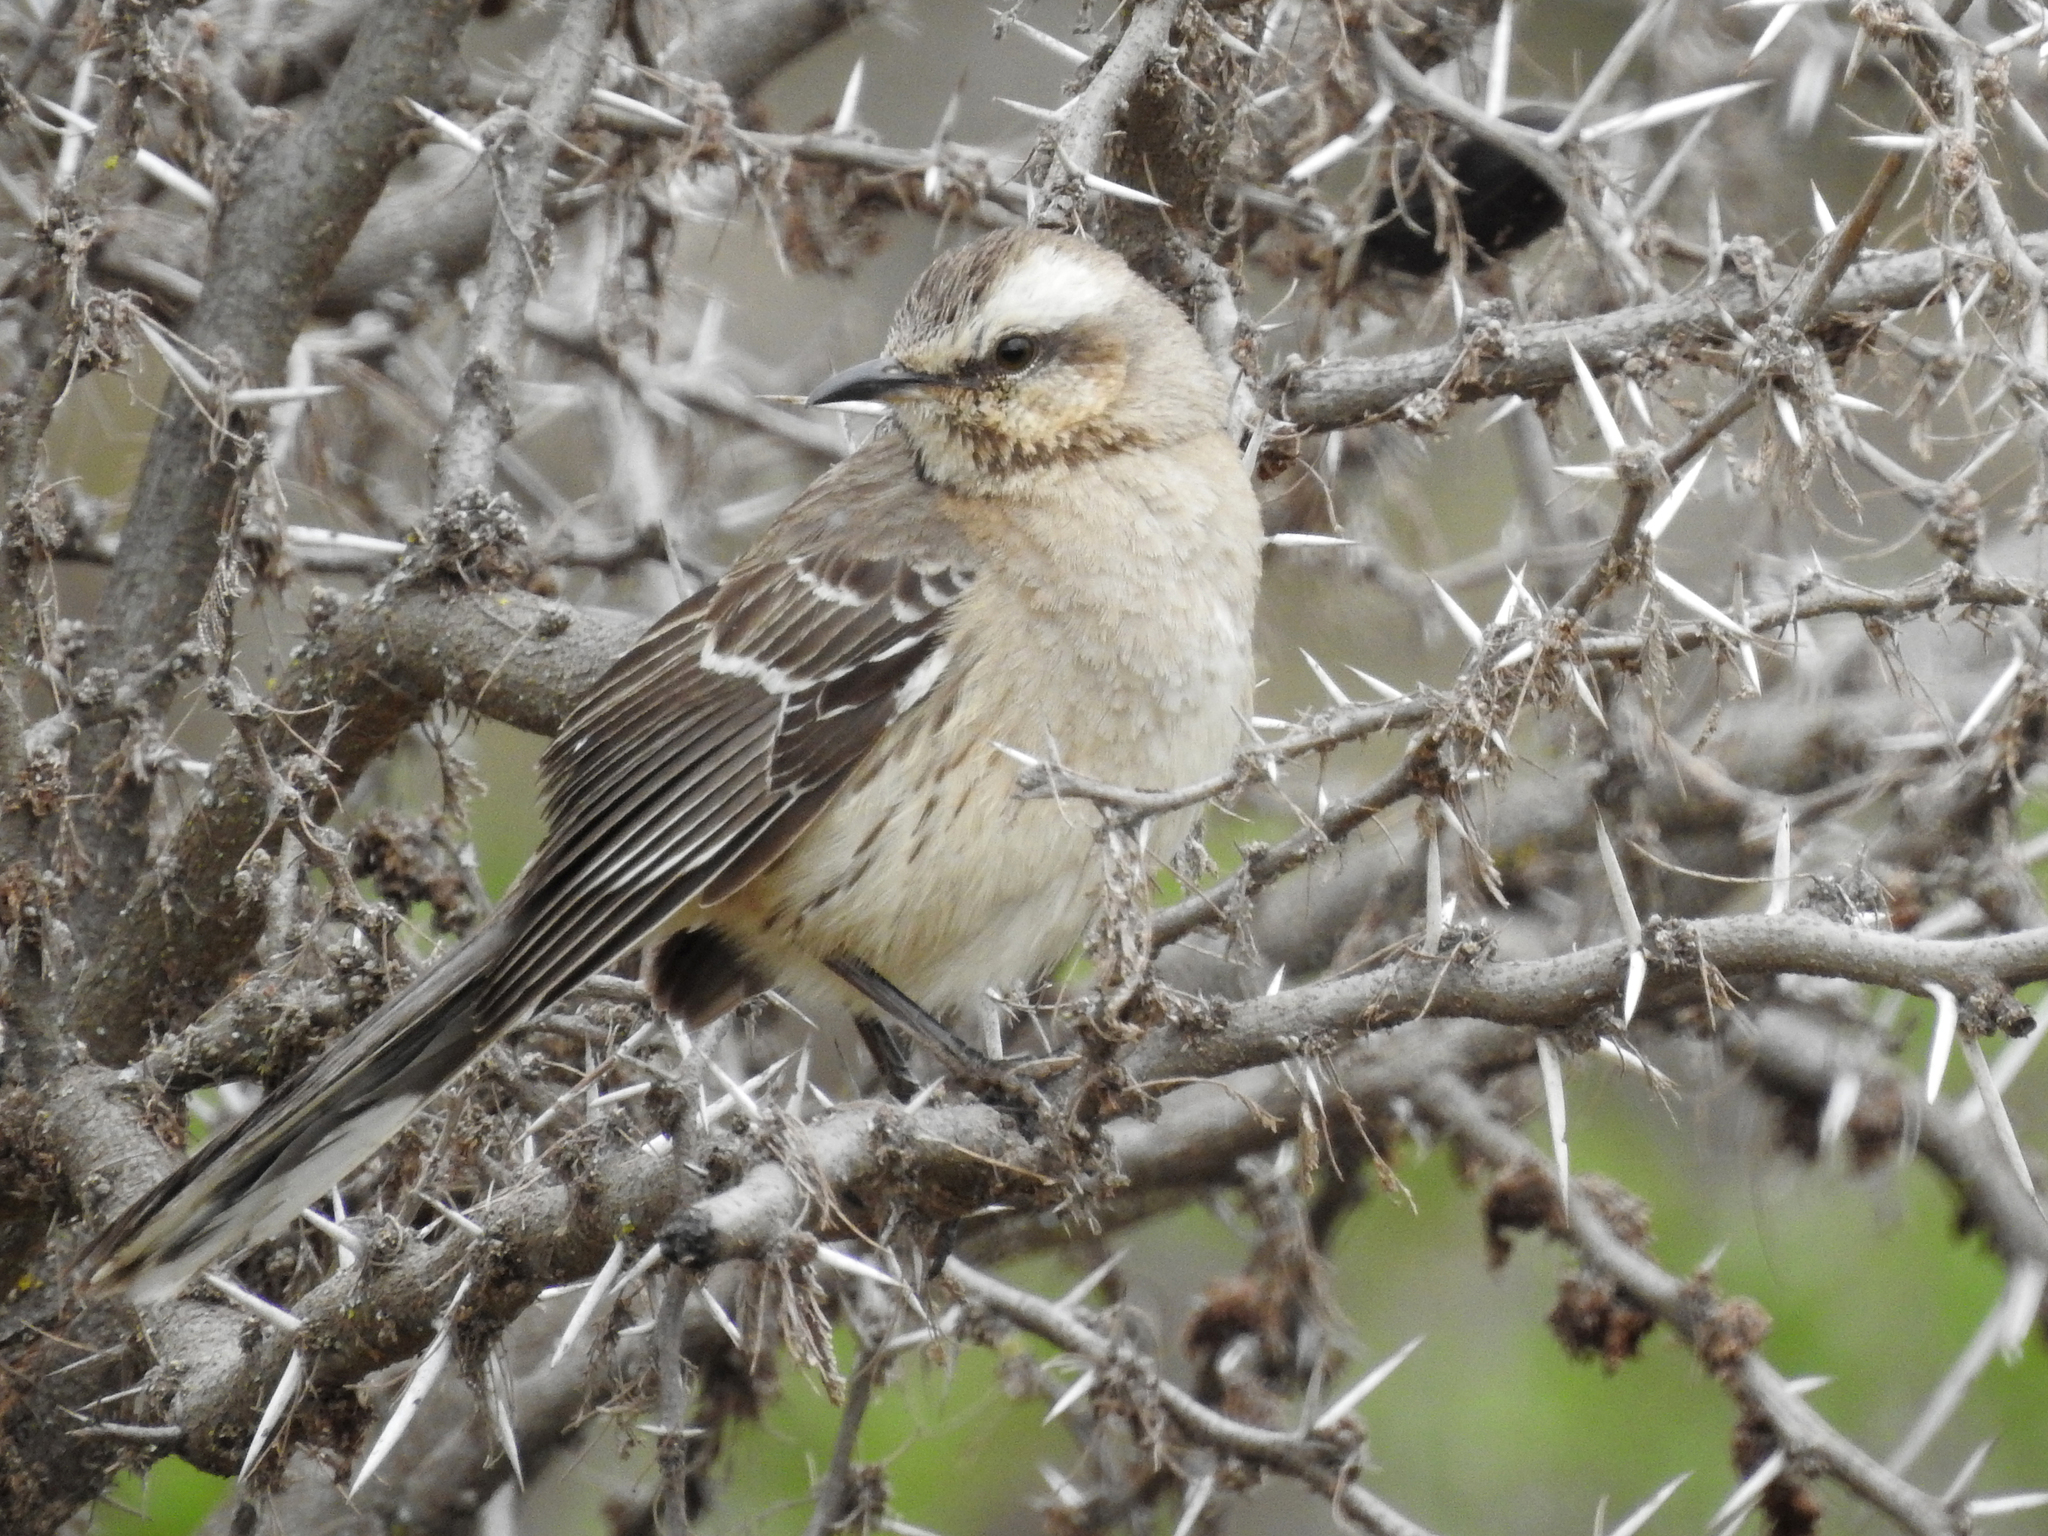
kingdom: Animalia
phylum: Chordata
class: Aves
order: Passeriformes
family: Mimidae
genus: Mimus
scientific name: Mimus thenca
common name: Chilean mockingbird
